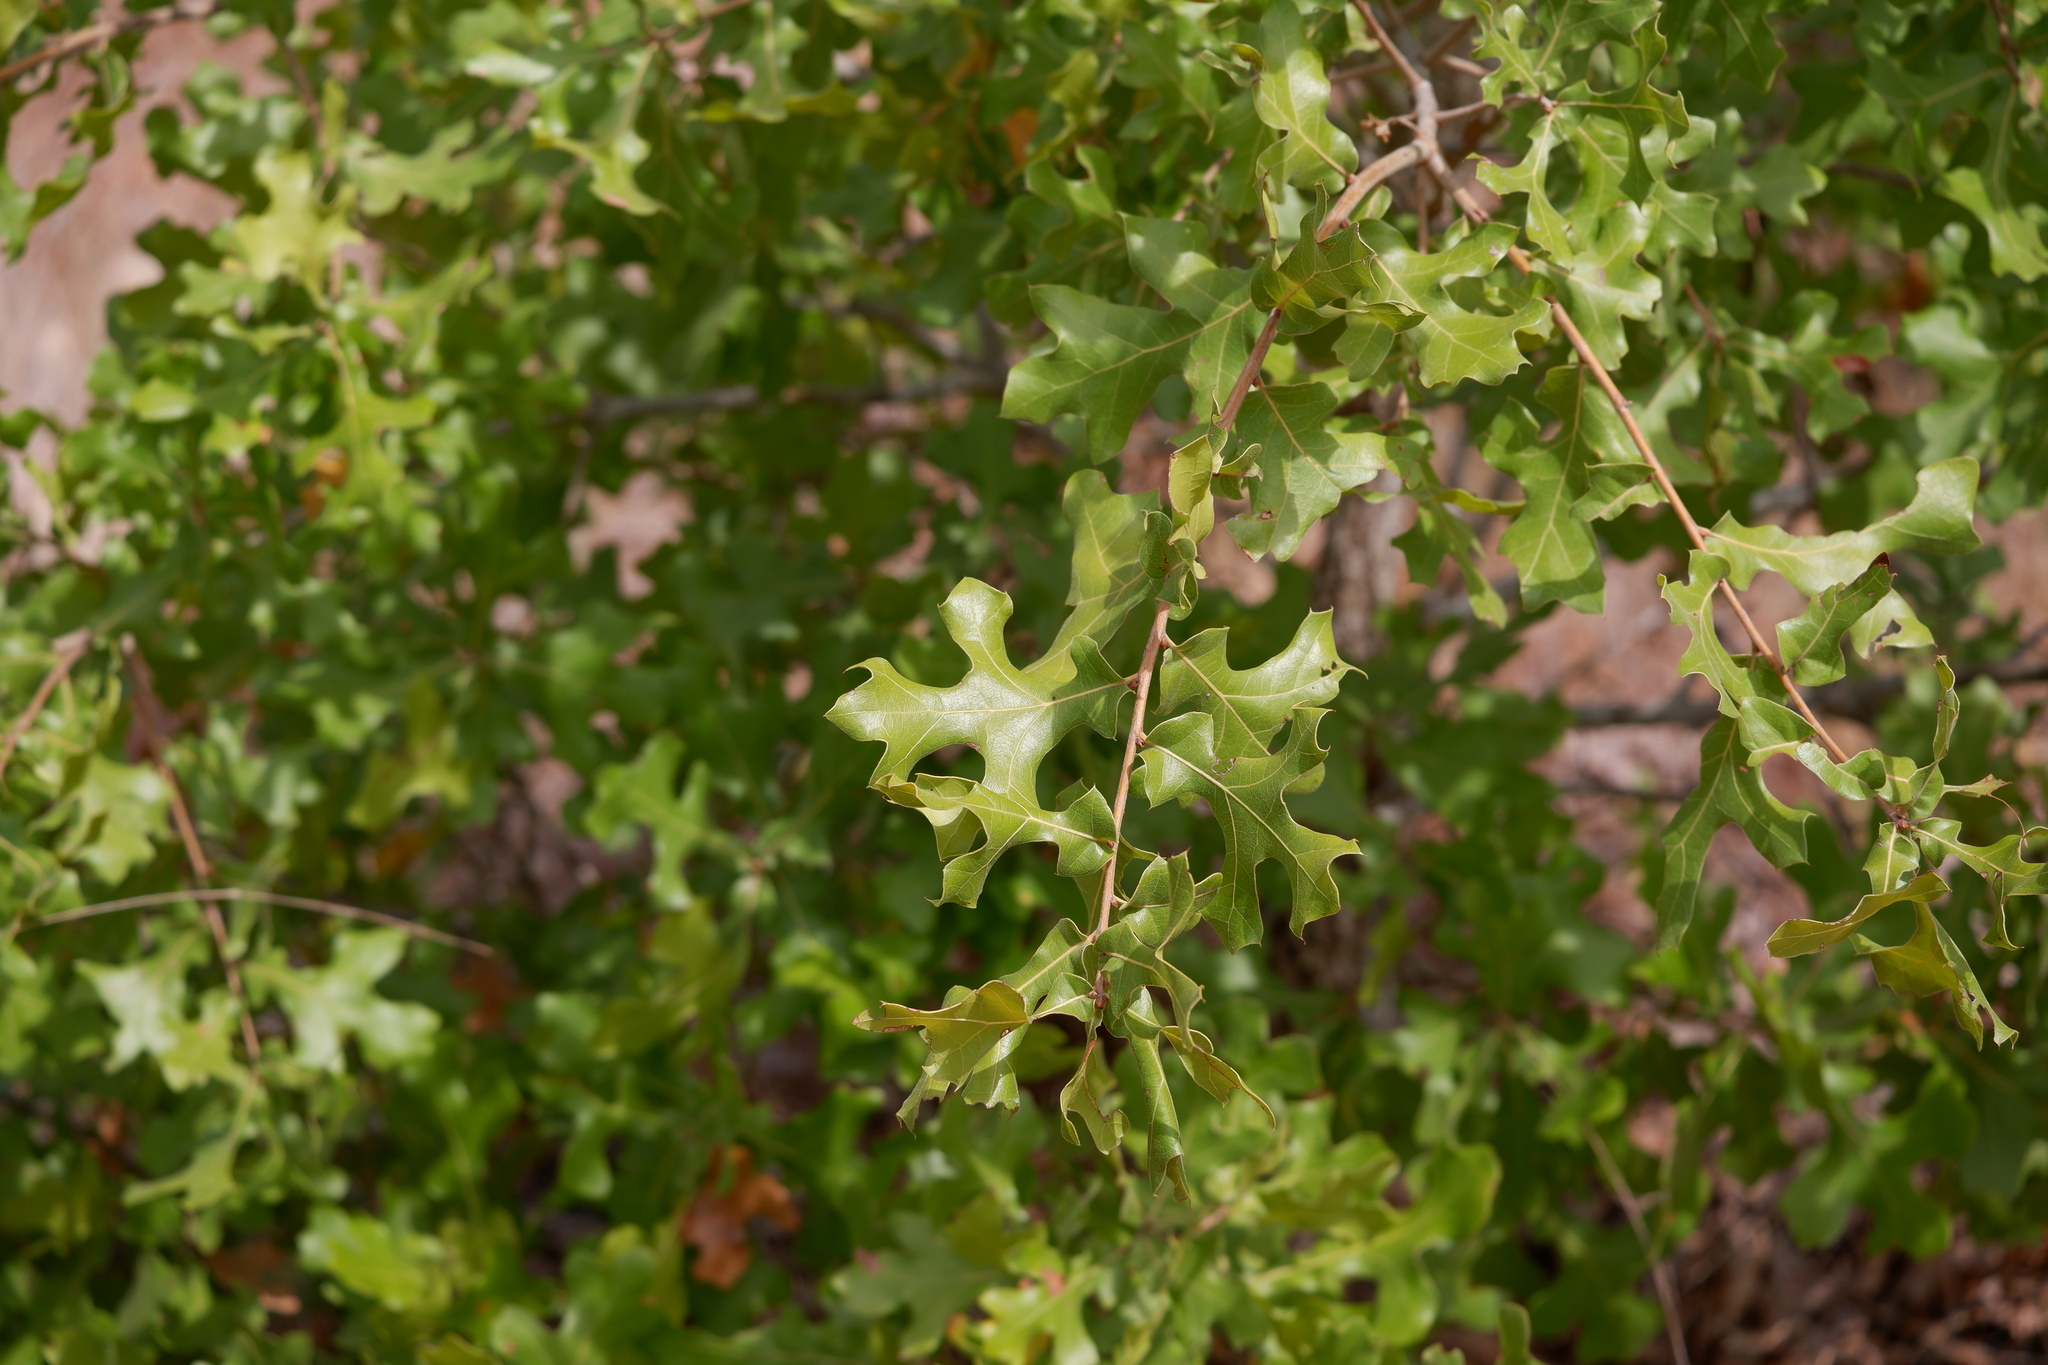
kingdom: Plantae
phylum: Tracheophyta
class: Magnoliopsida
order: Fagales
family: Fagaceae
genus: Quercus
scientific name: Quercus hastingsii
